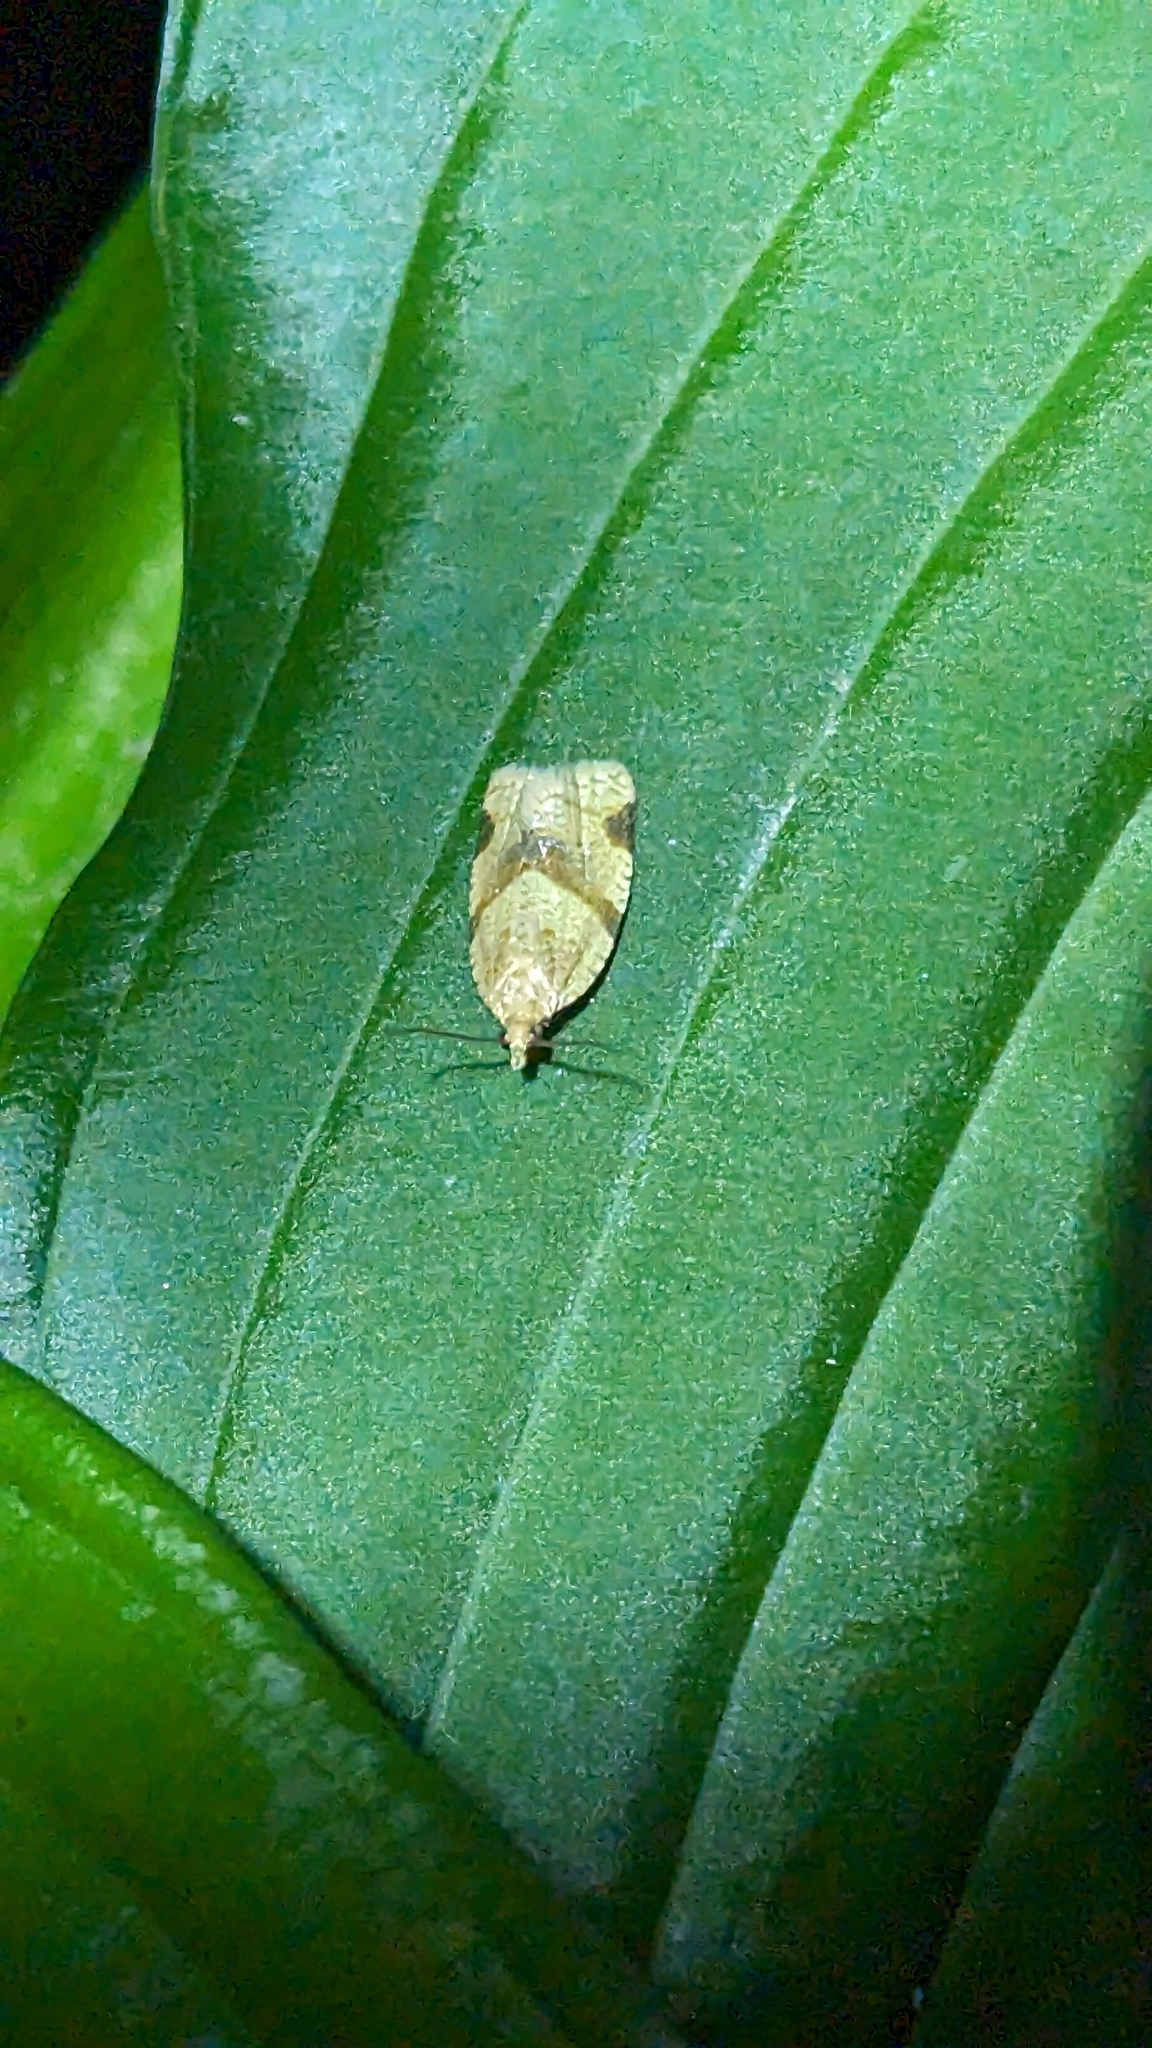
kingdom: Animalia
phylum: Arthropoda
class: Insecta
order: Lepidoptera
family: Tortricidae
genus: Clepsis
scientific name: Clepsis peritana
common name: Garden tortrix
